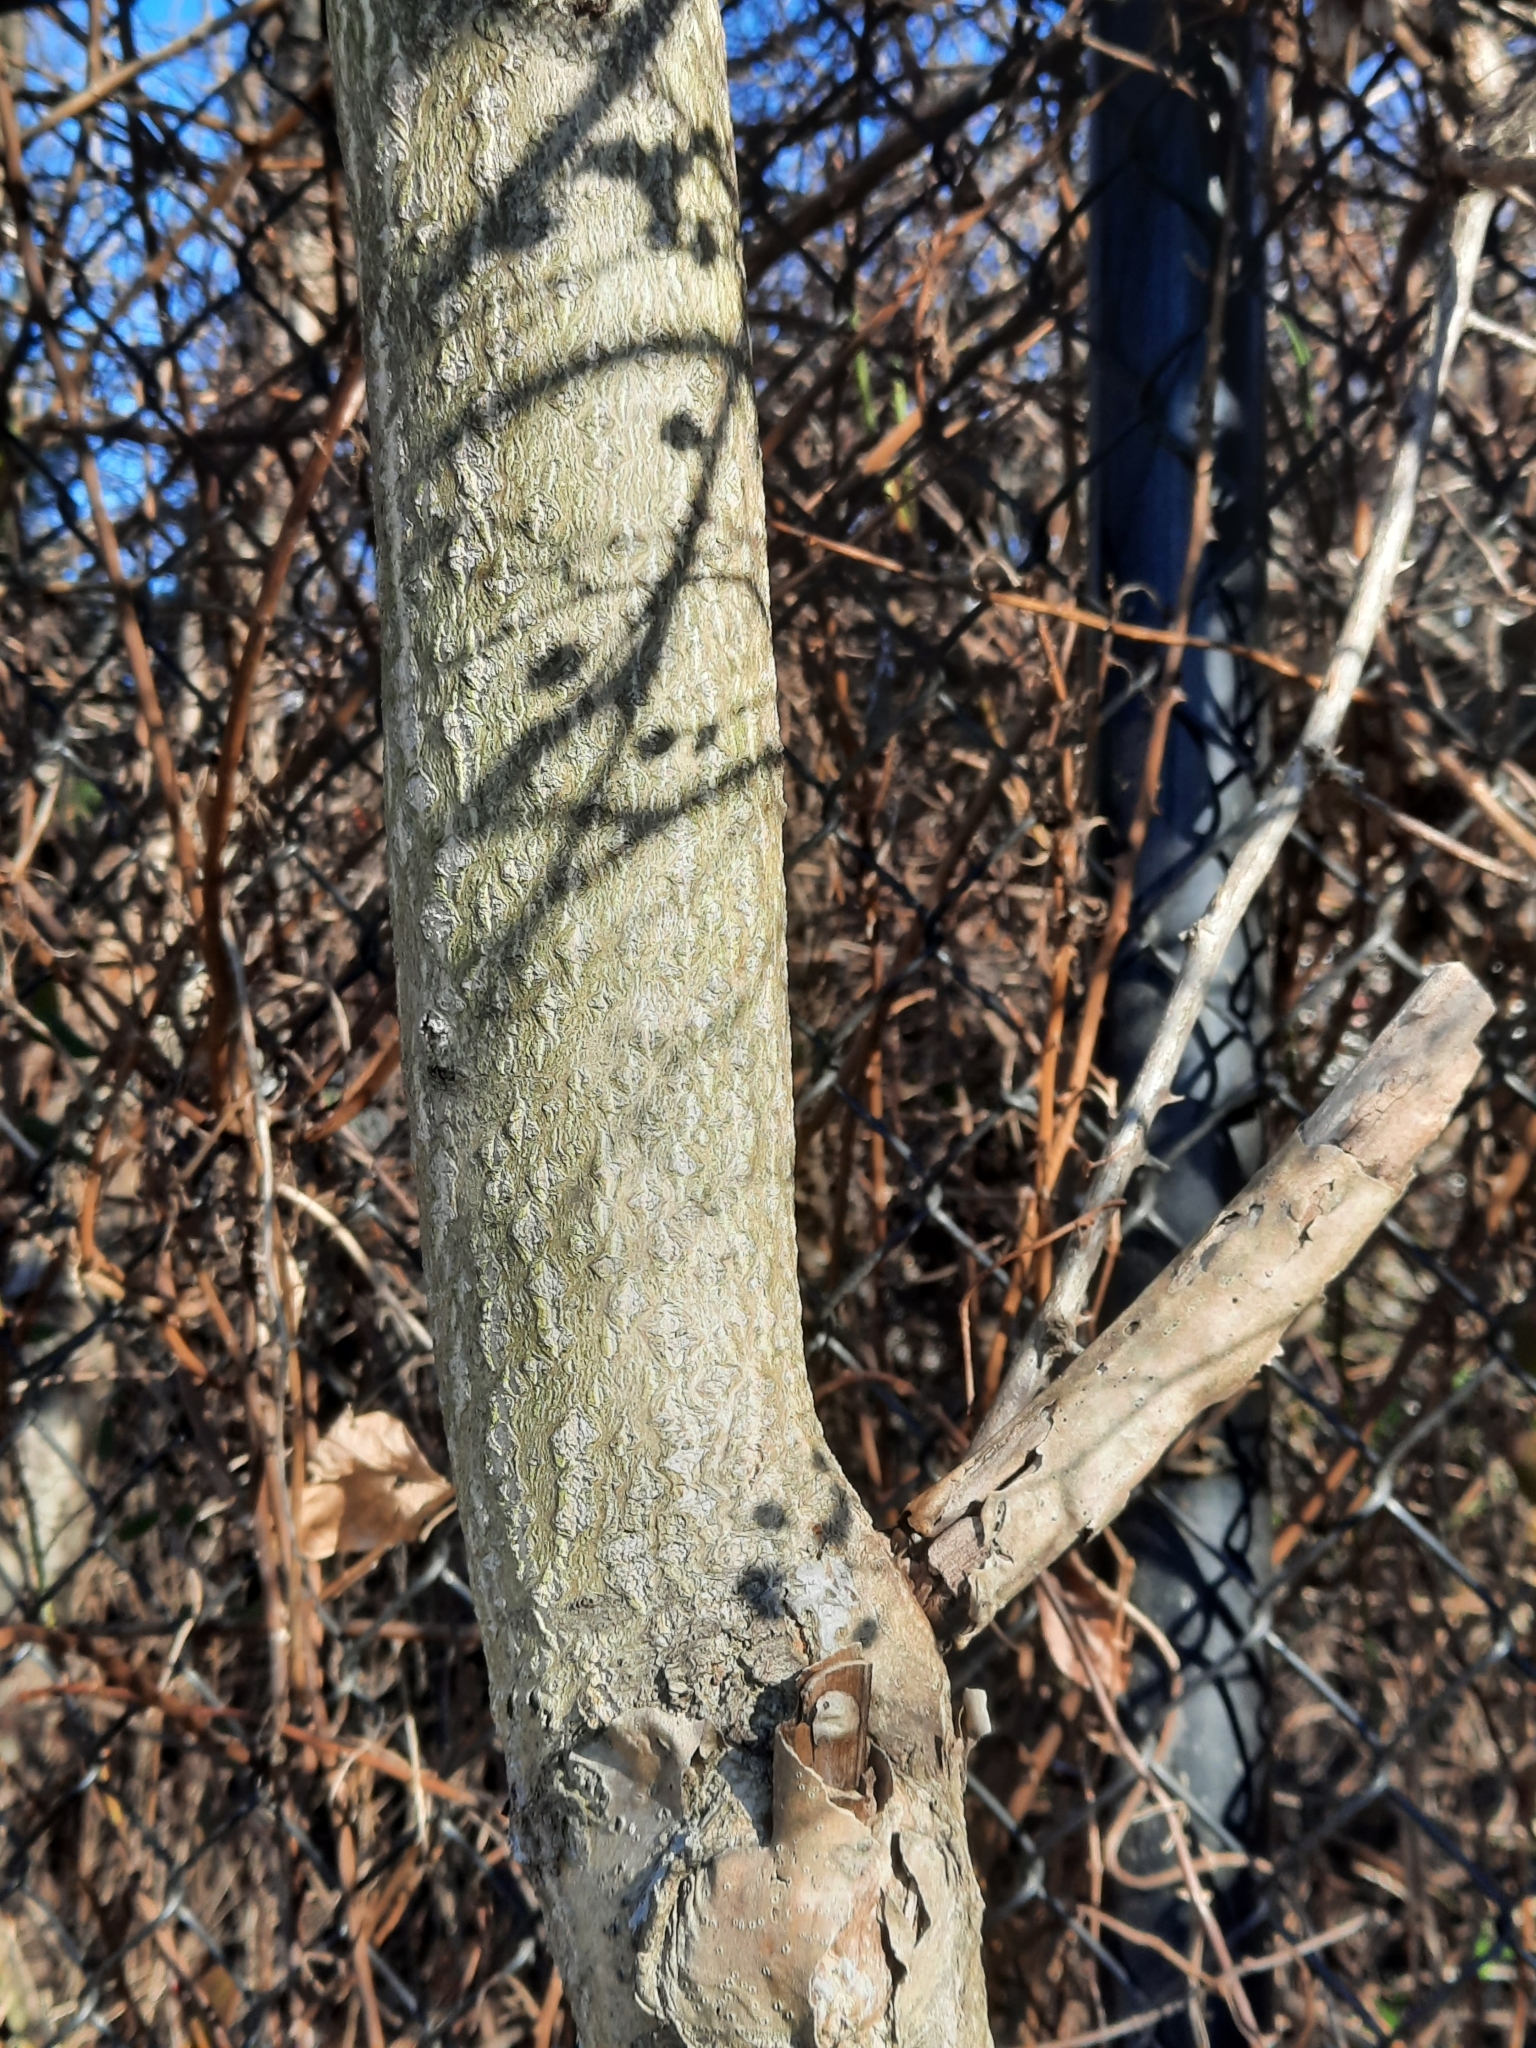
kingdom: Plantae
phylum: Tracheophyta
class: Magnoliopsida
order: Sapindales
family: Simaroubaceae
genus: Ailanthus
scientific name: Ailanthus altissima
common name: Tree-of-heaven
